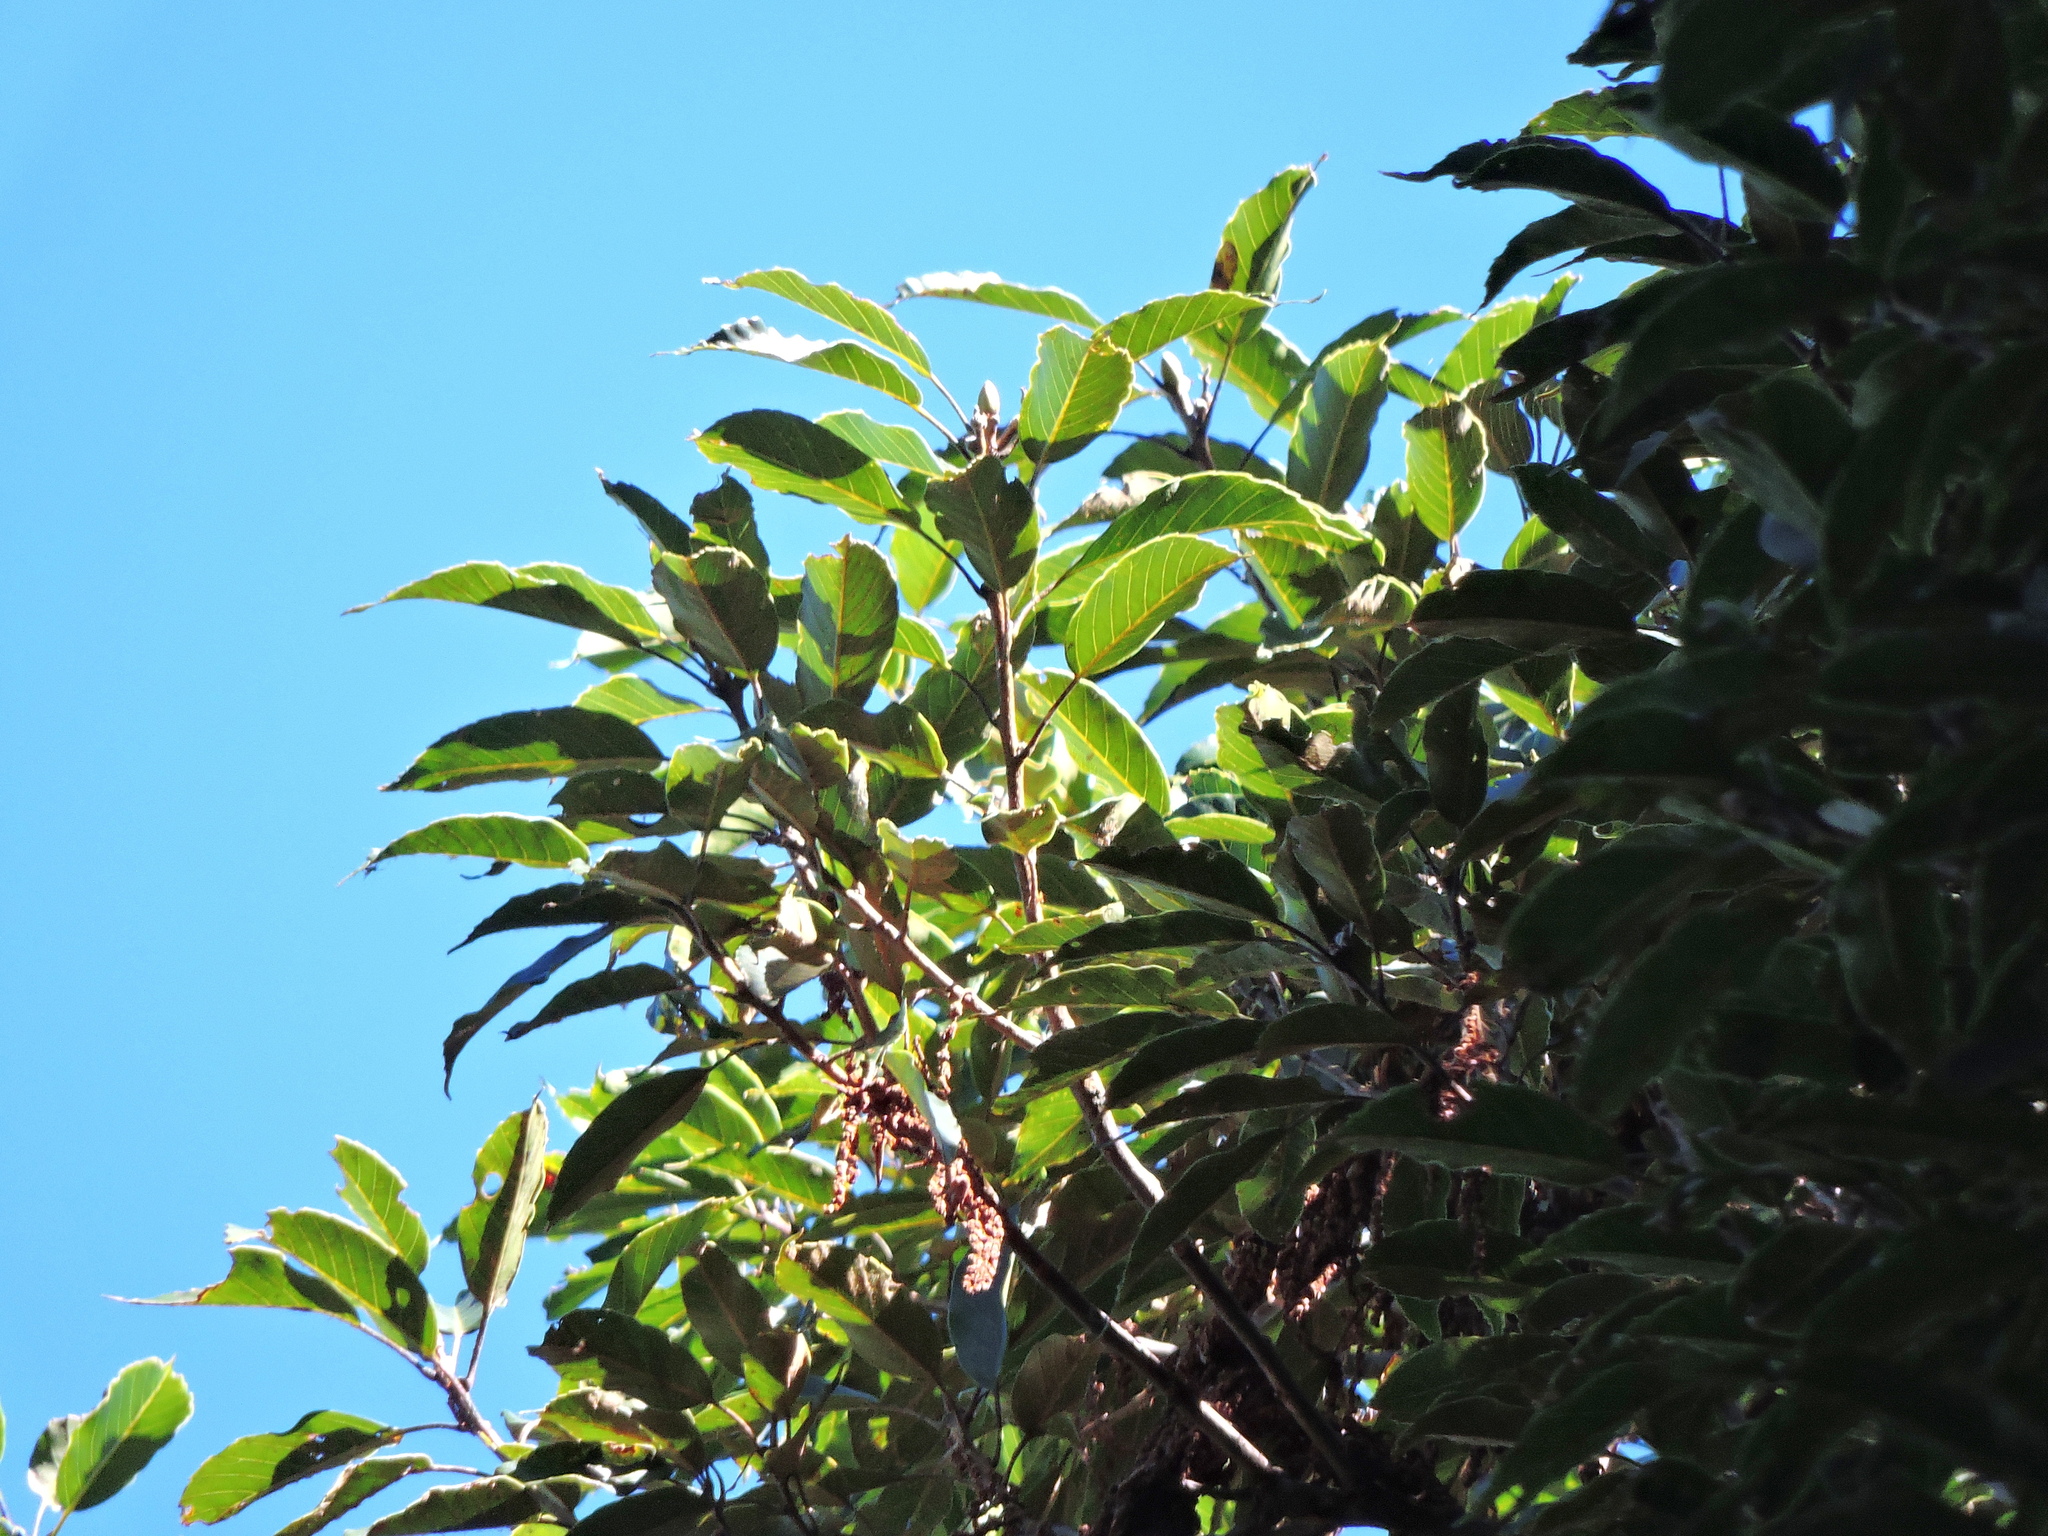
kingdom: Plantae
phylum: Tracheophyta
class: Magnoliopsida
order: Fagales
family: Fagaceae
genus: Quercus
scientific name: Quercus morii
